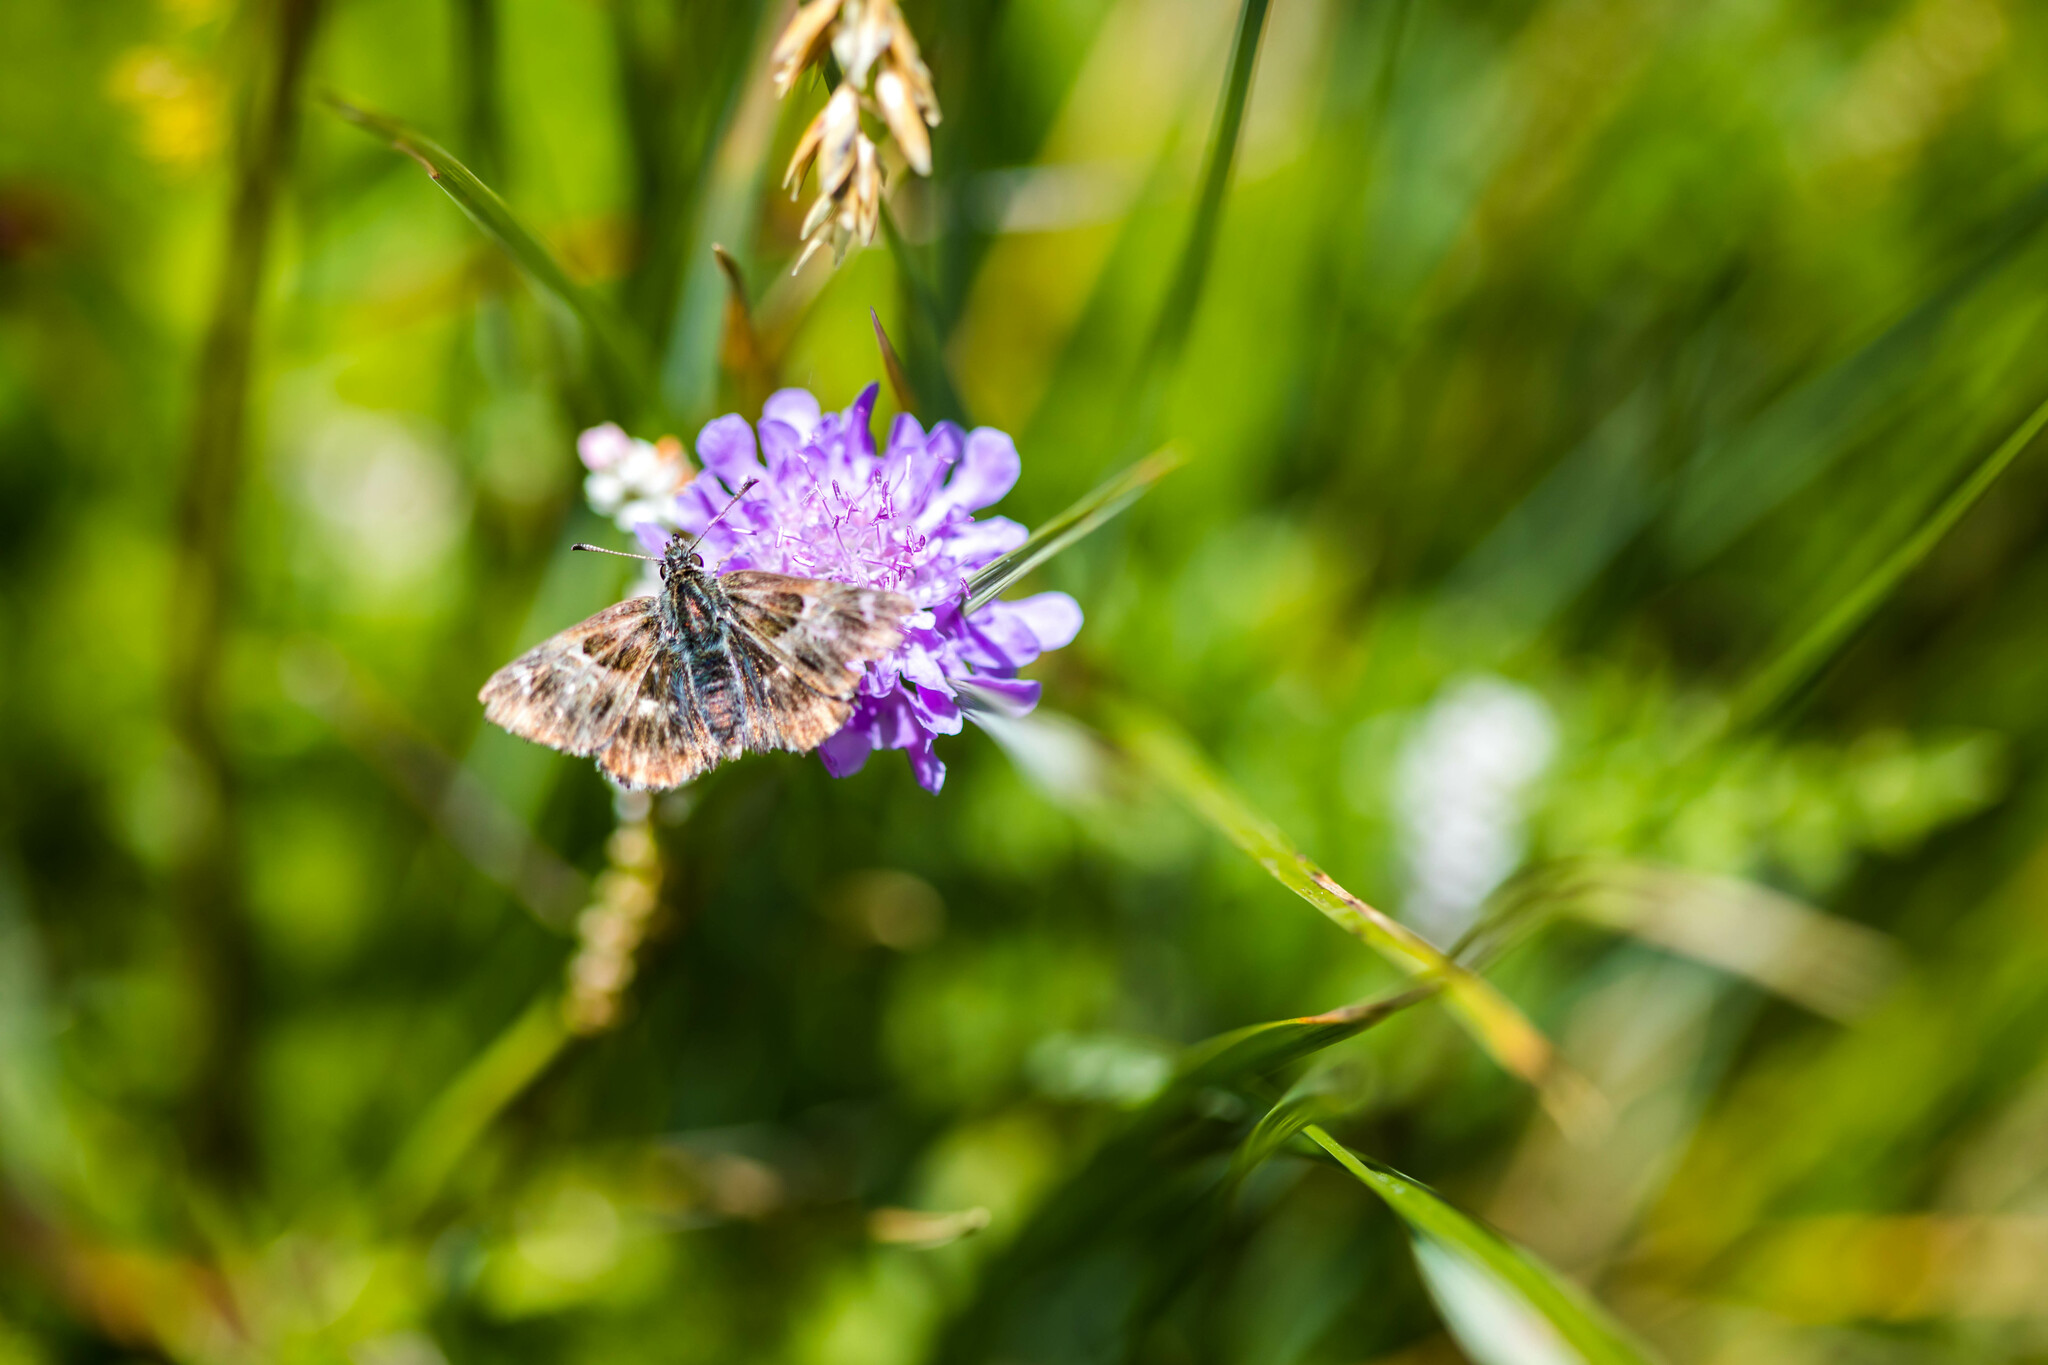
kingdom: Animalia
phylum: Arthropoda
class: Insecta
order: Lepidoptera
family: Hesperiidae
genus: Carcharodus
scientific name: Carcharodus floccifera
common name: Tufted marbled skipper
